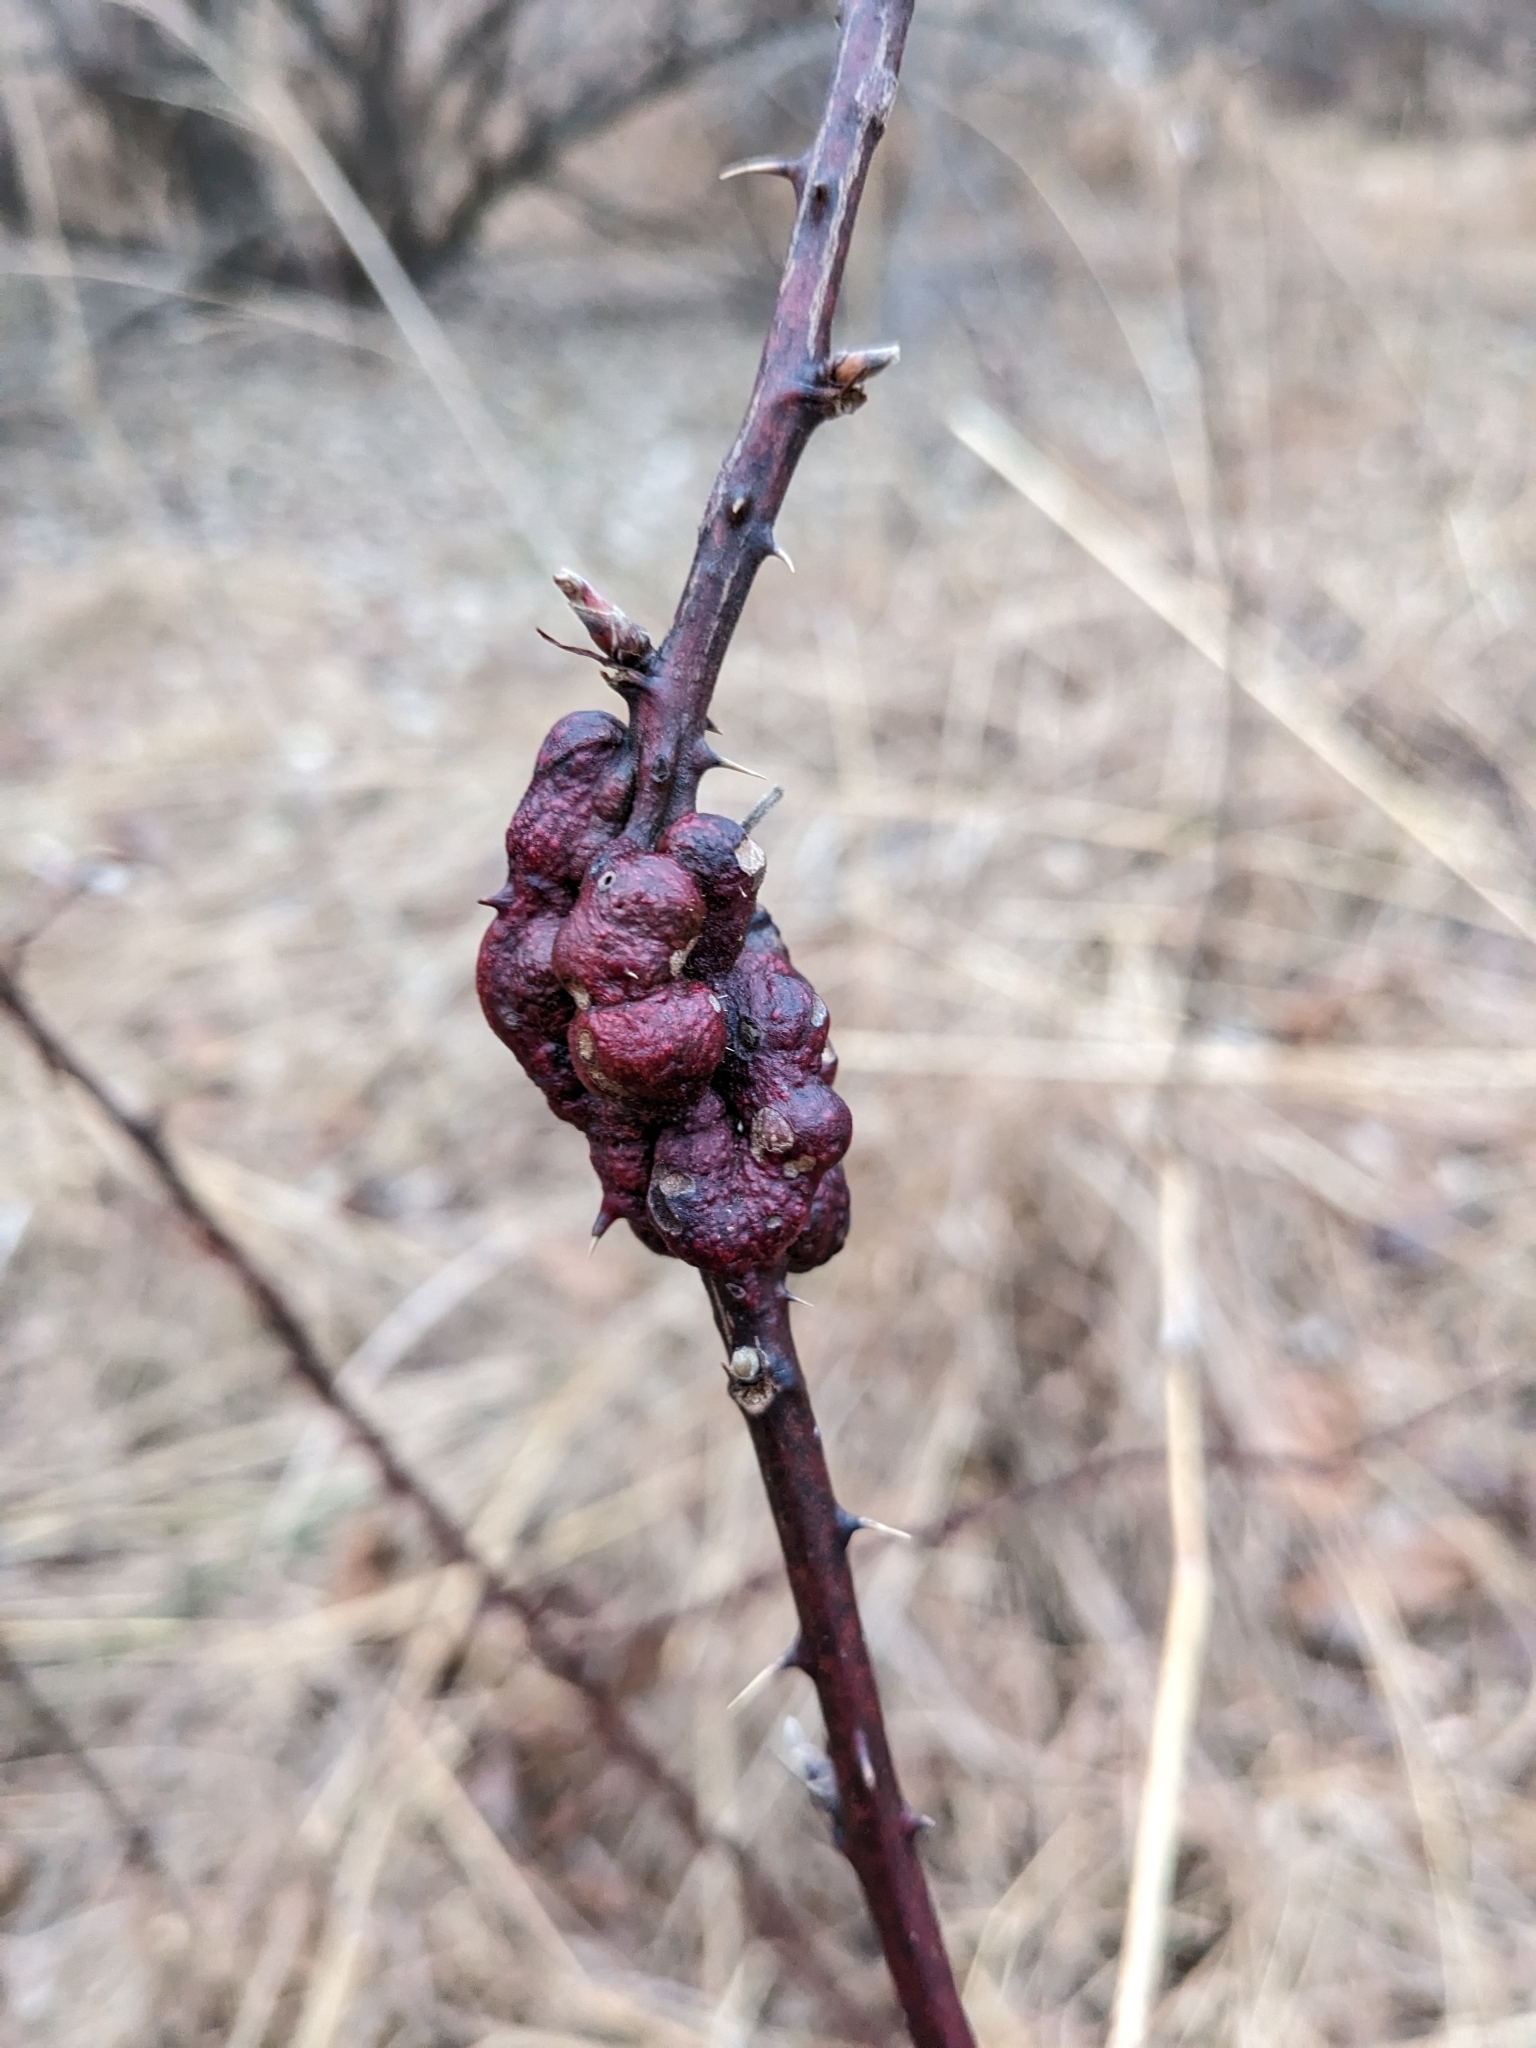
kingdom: Animalia
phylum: Arthropoda
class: Insecta
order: Hymenoptera
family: Cynipidae
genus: Diastrophus
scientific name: Diastrophus
